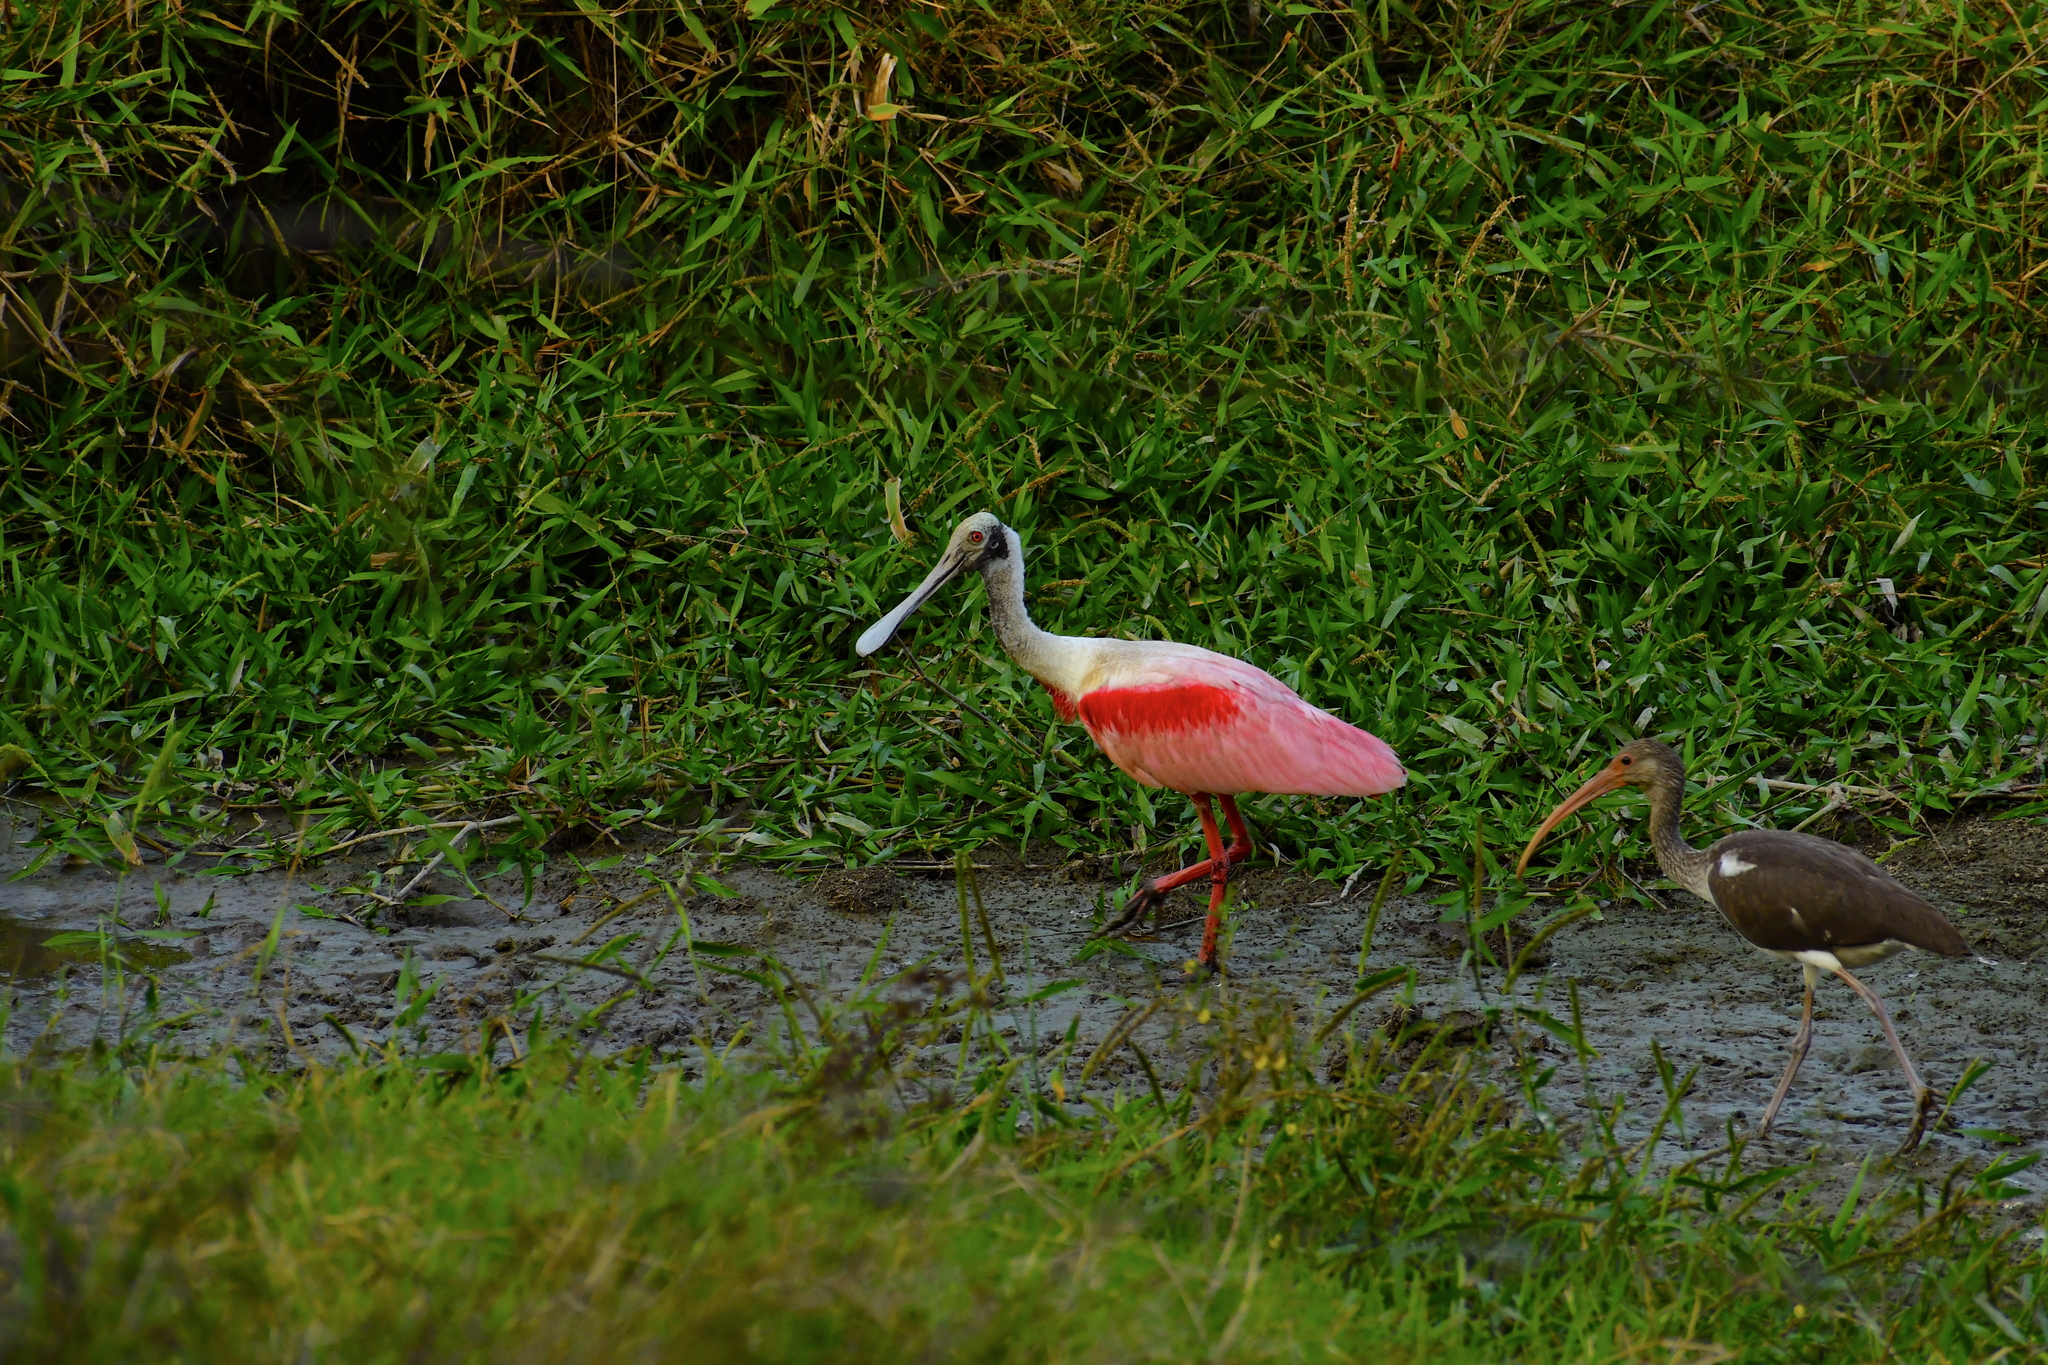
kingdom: Animalia
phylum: Chordata
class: Aves
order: Pelecaniformes
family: Threskiornithidae
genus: Platalea
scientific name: Platalea ajaja
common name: Roseate spoonbill
